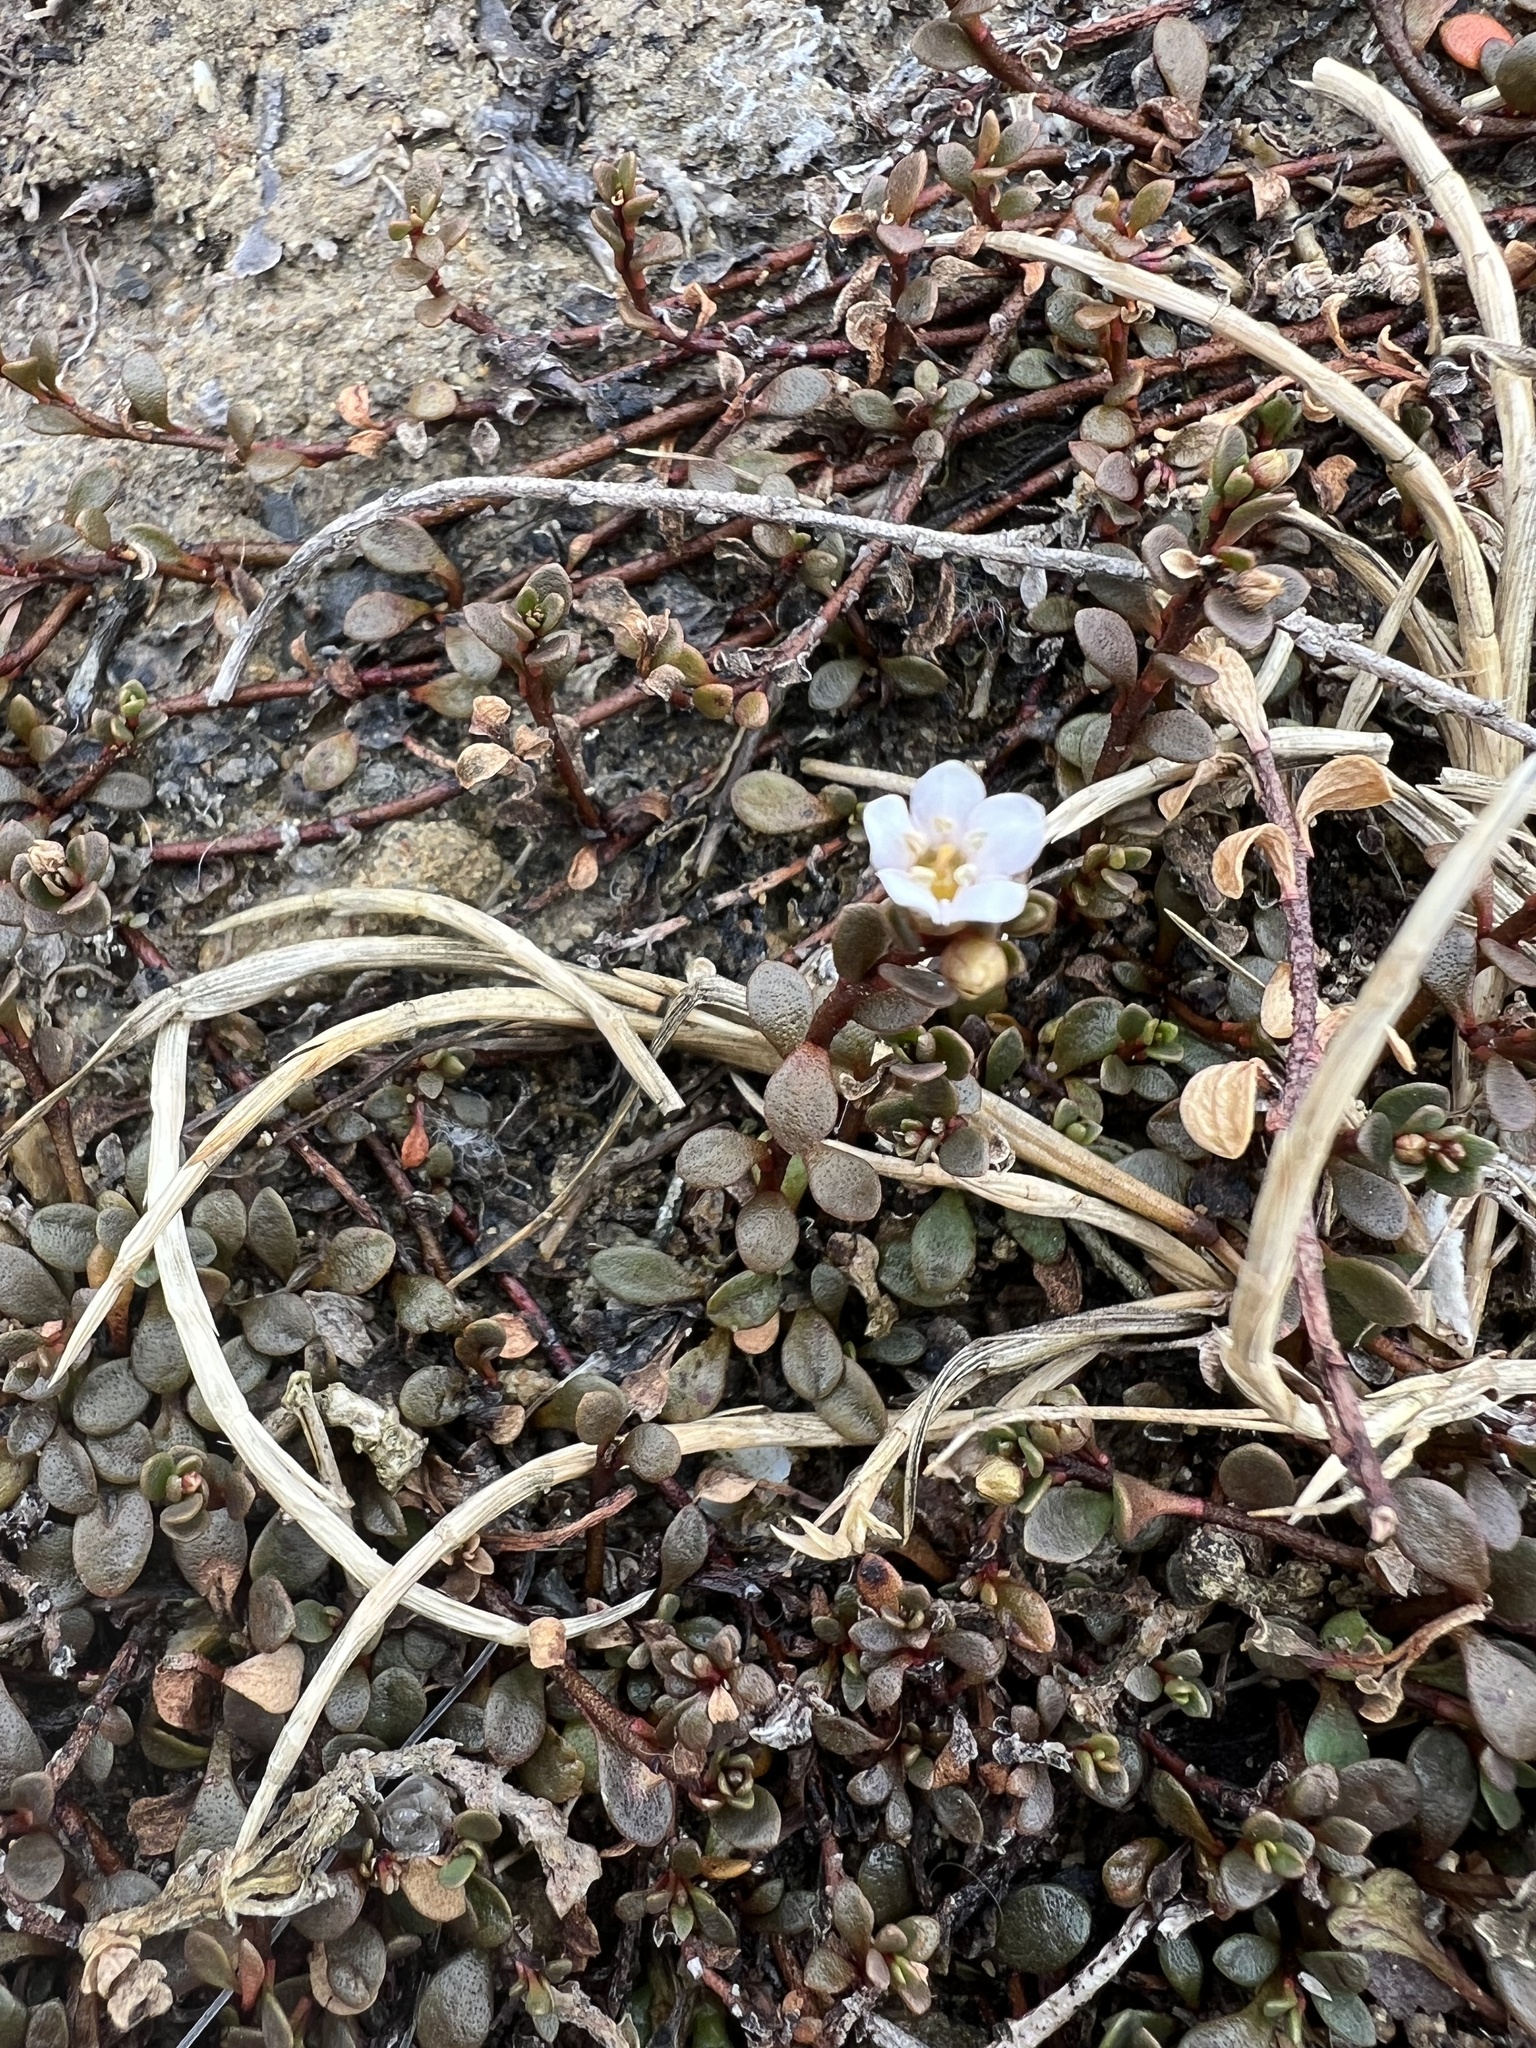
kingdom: Plantae
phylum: Tracheophyta
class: Magnoliopsida
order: Ericales
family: Primulaceae
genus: Samolus
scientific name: Samolus repens
